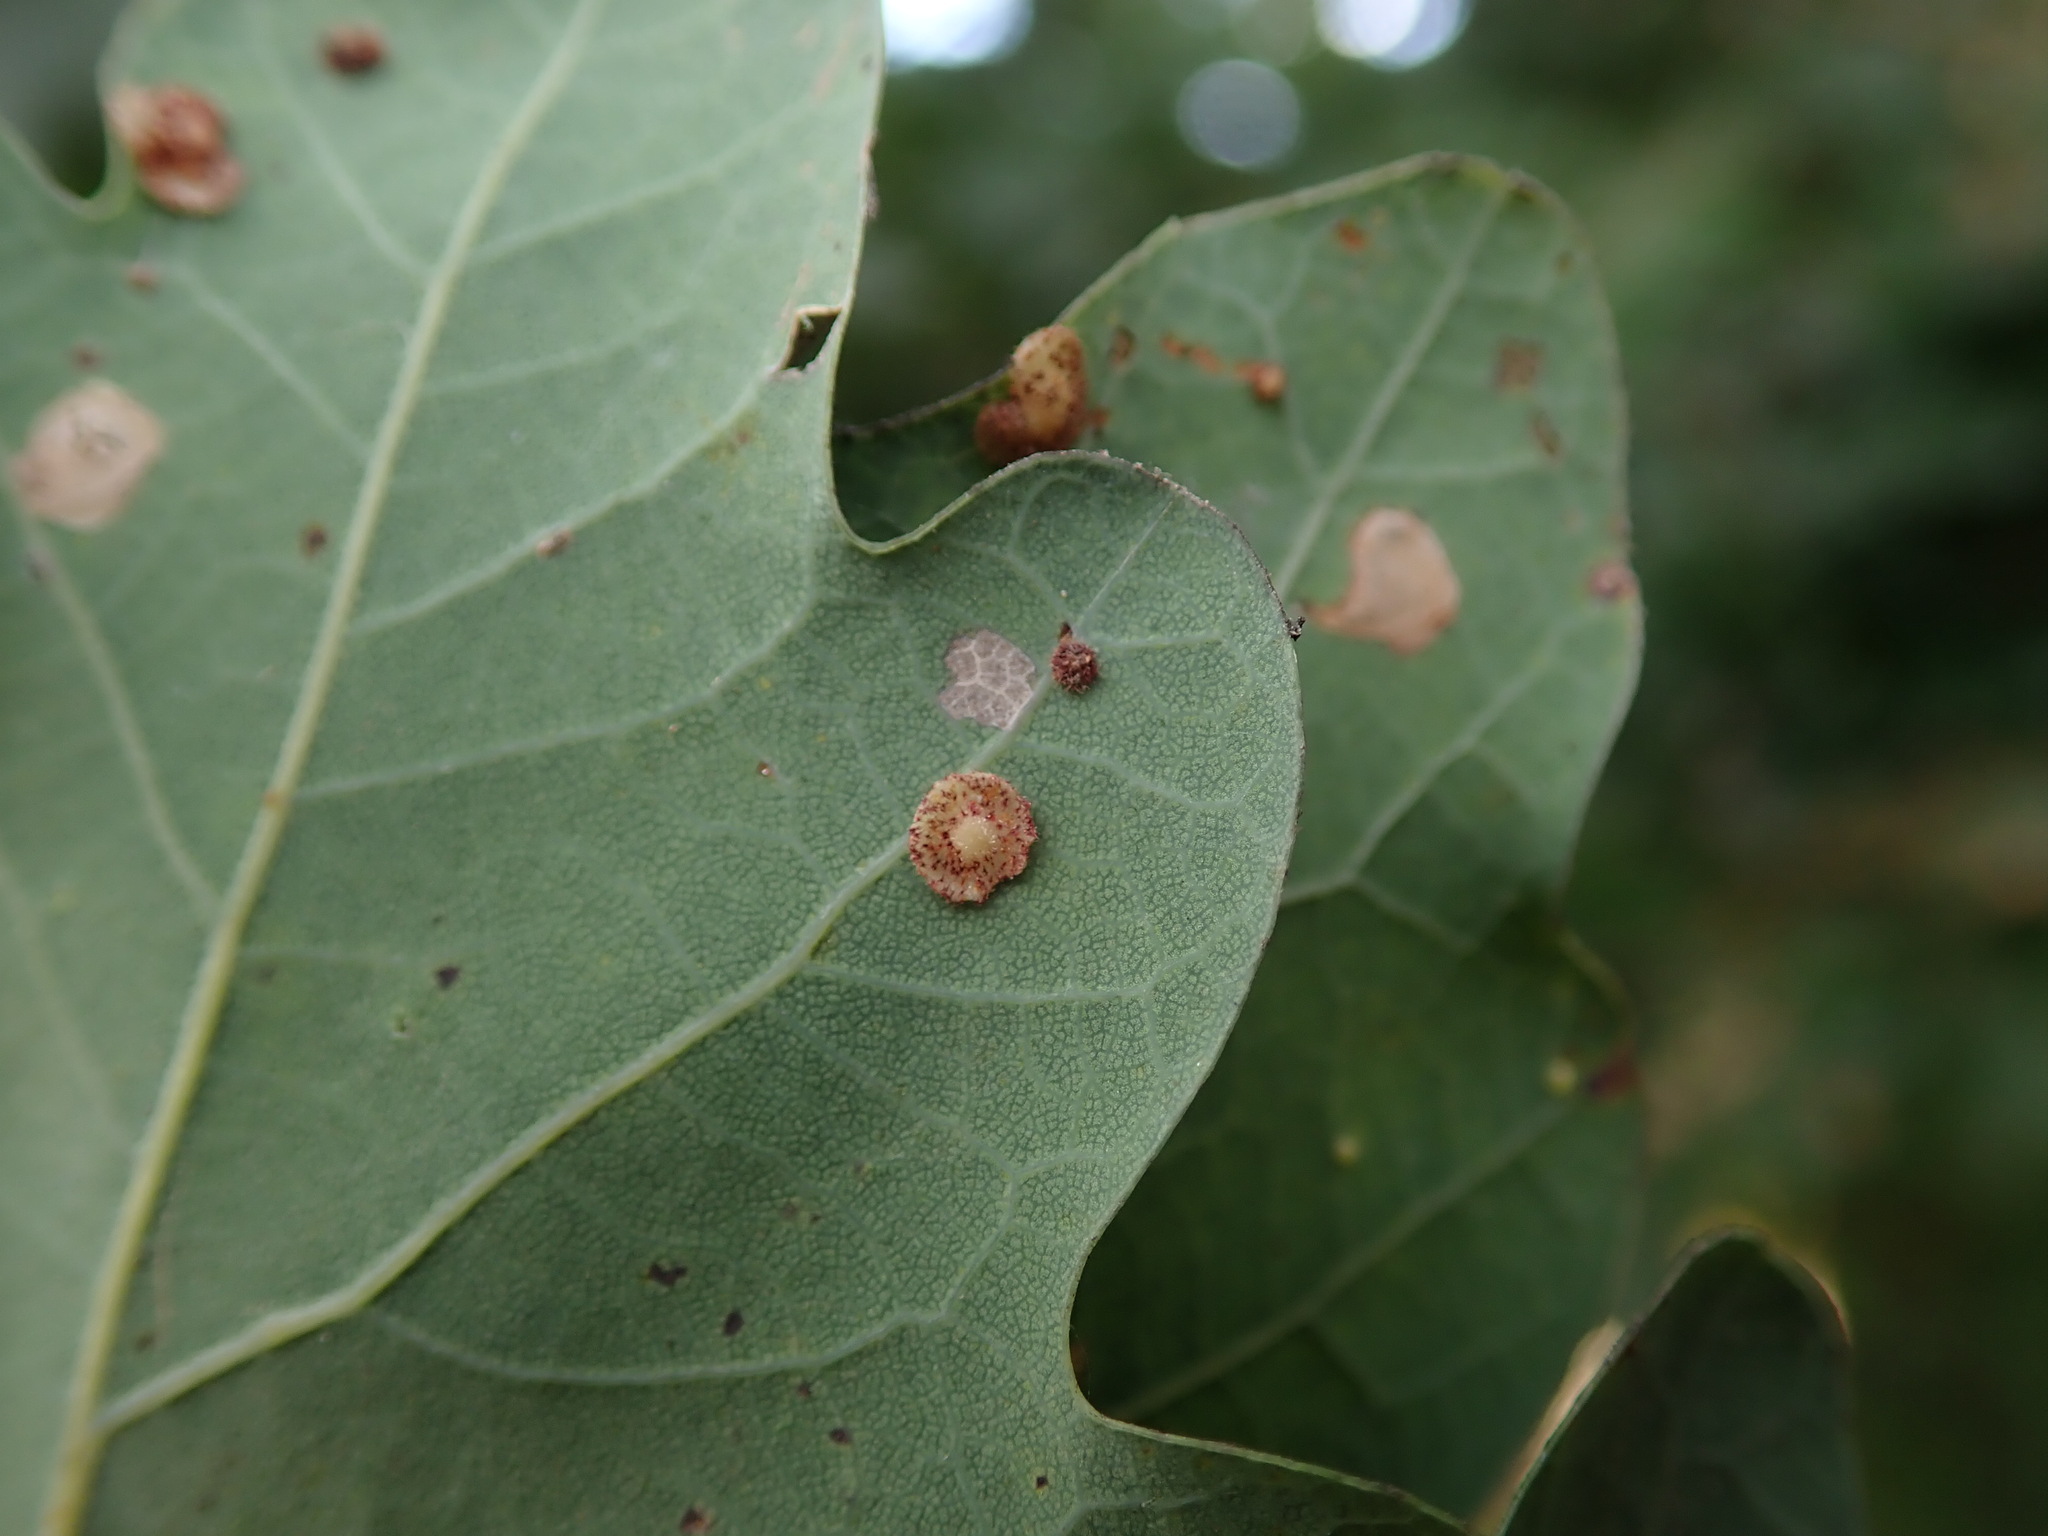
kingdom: Animalia
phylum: Arthropoda
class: Insecta
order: Hymenoptera
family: Cynipidae
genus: Neuroterus
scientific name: Neuroterus quercusbaccarum
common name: Common spangle gall
